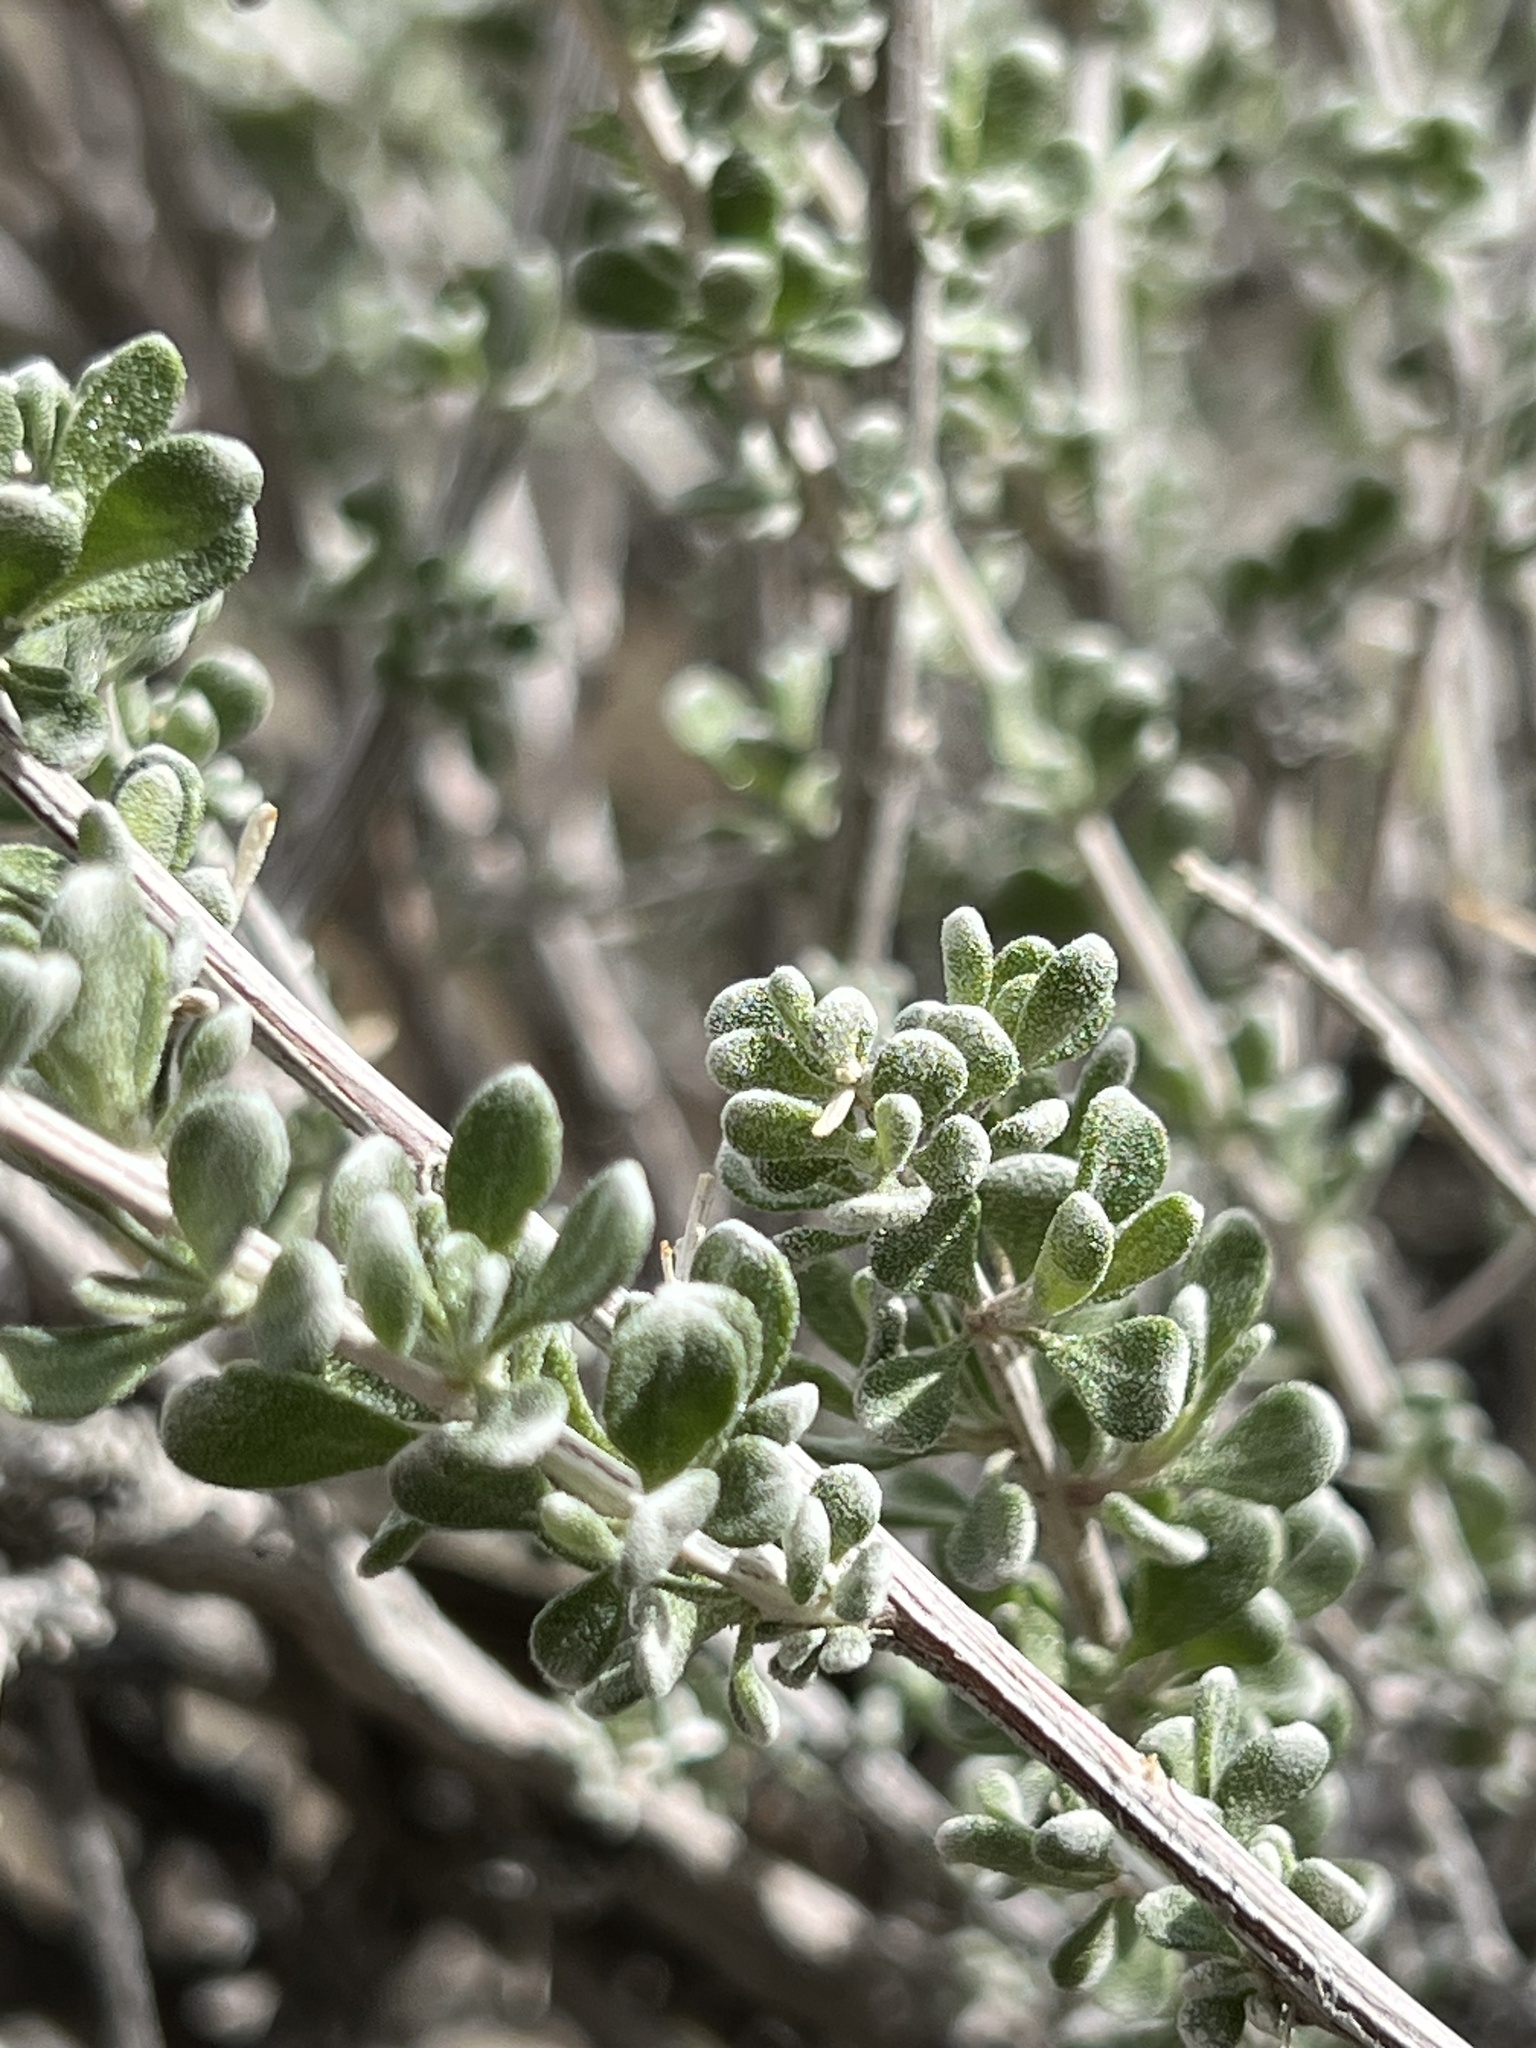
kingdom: Plantae
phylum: Tracheophyta
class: Magnoliopsida
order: Caryophyllales
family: Amaranthaceae
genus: Grayia
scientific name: Grayia spinosa
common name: Spiny hopsage
